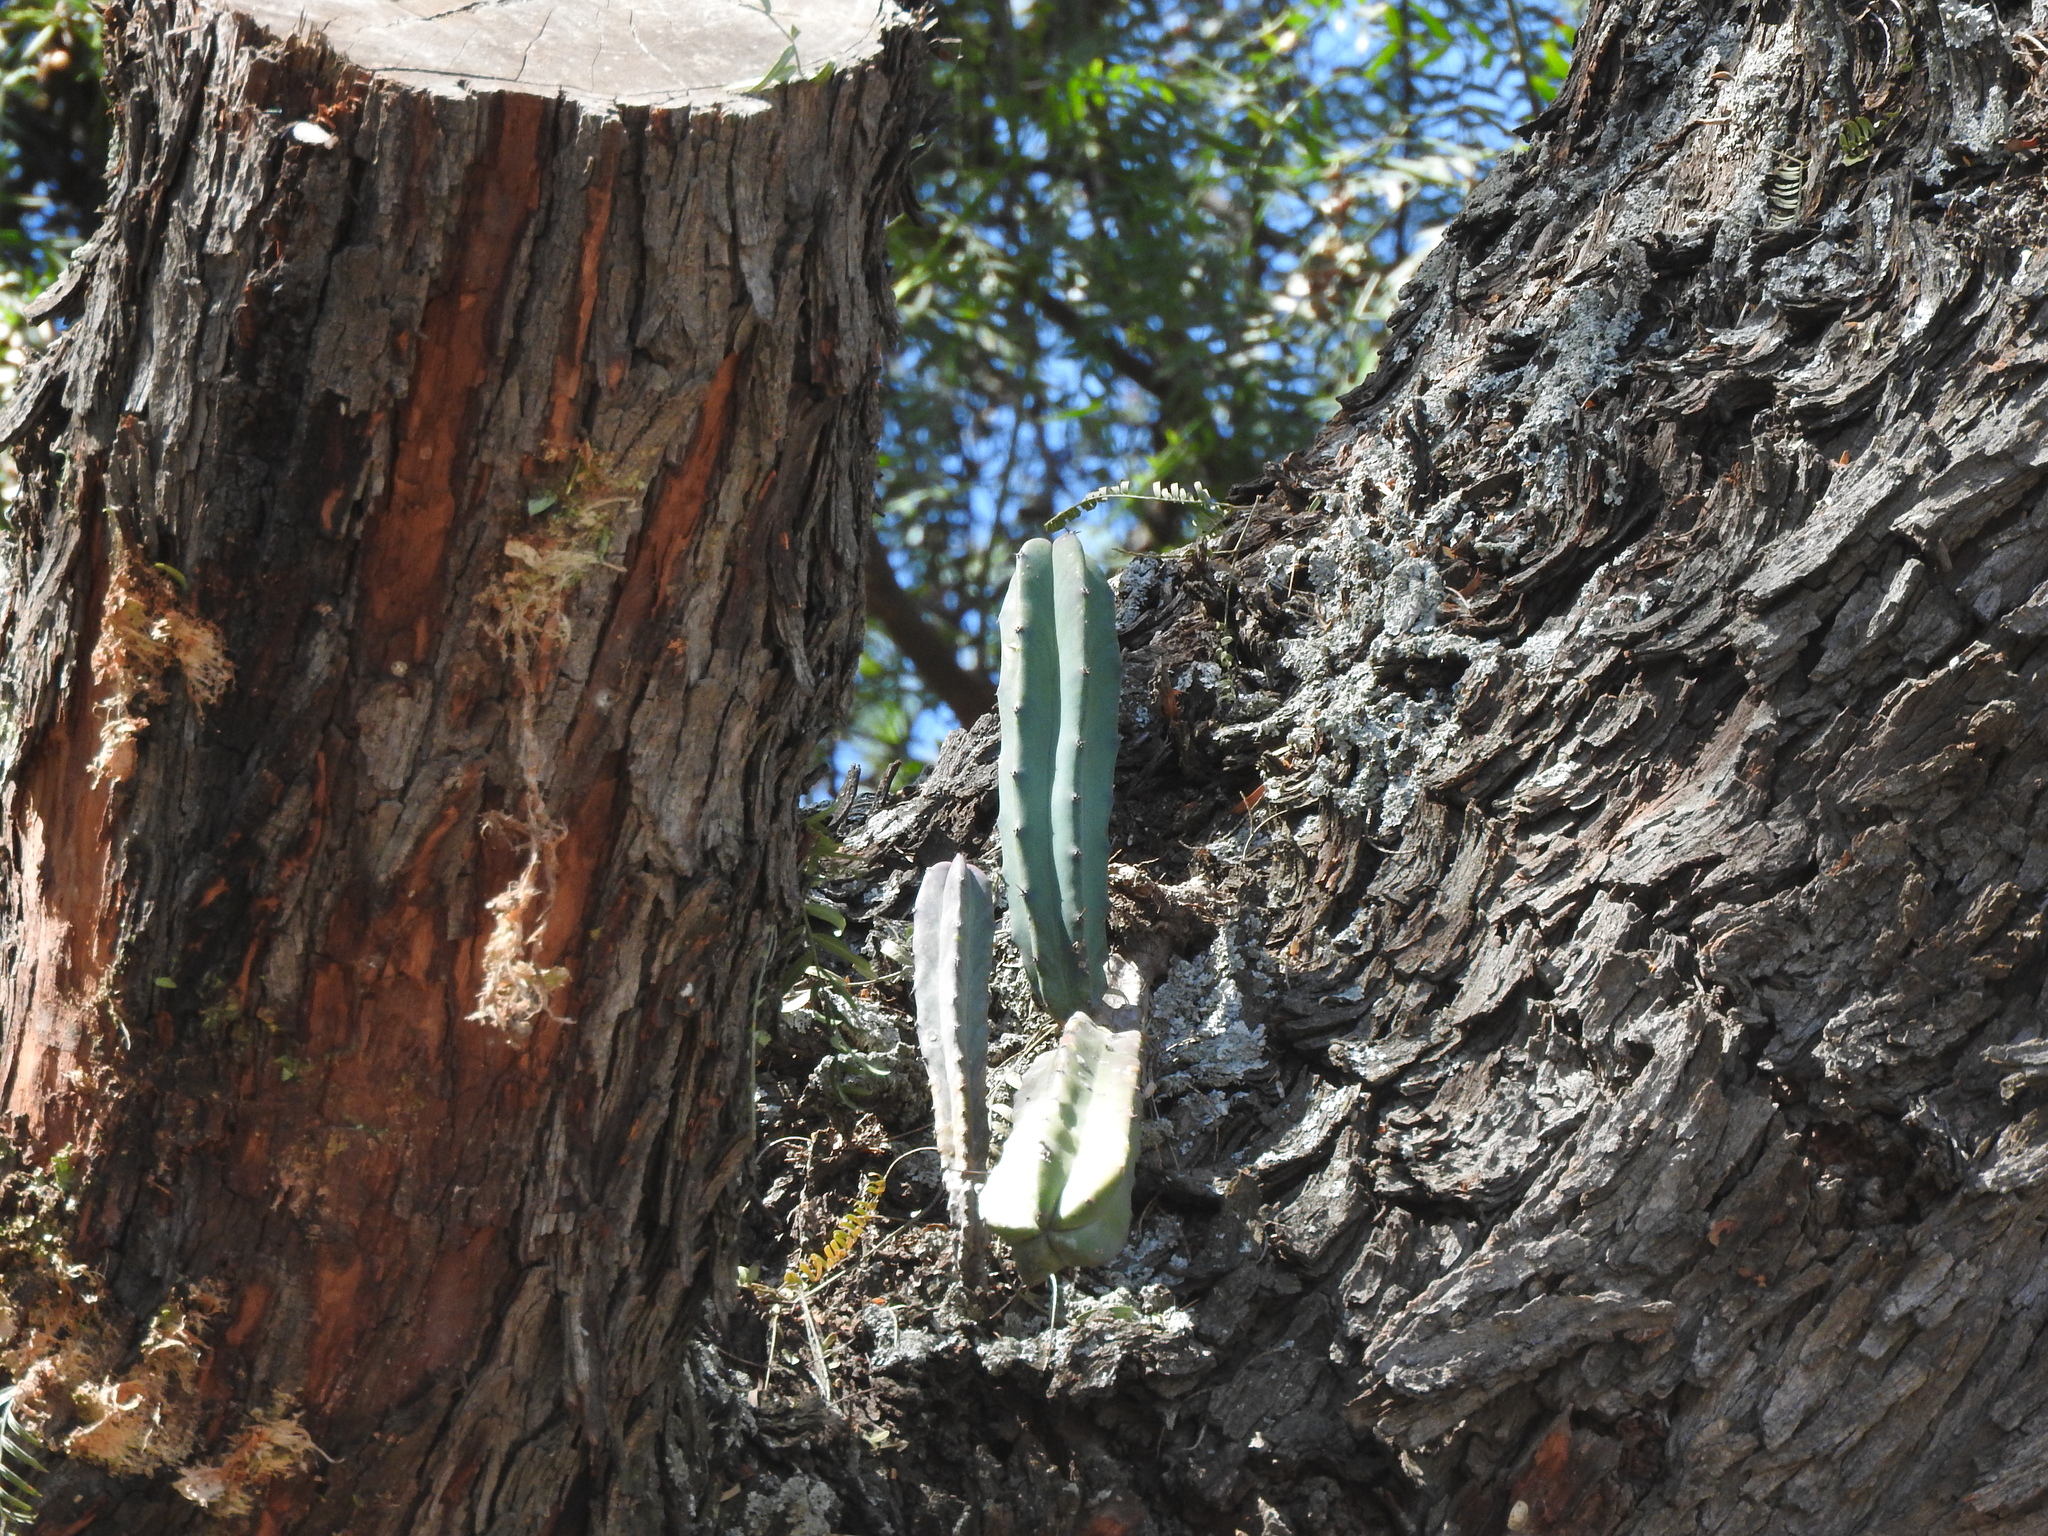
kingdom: Plantae
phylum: Tracheophyta
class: Magnoliopsida
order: Caryophyllales
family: Cactaceae
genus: Myrtillocactus
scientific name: Myrtillocactus geometrizans
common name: Bilberry cactus
